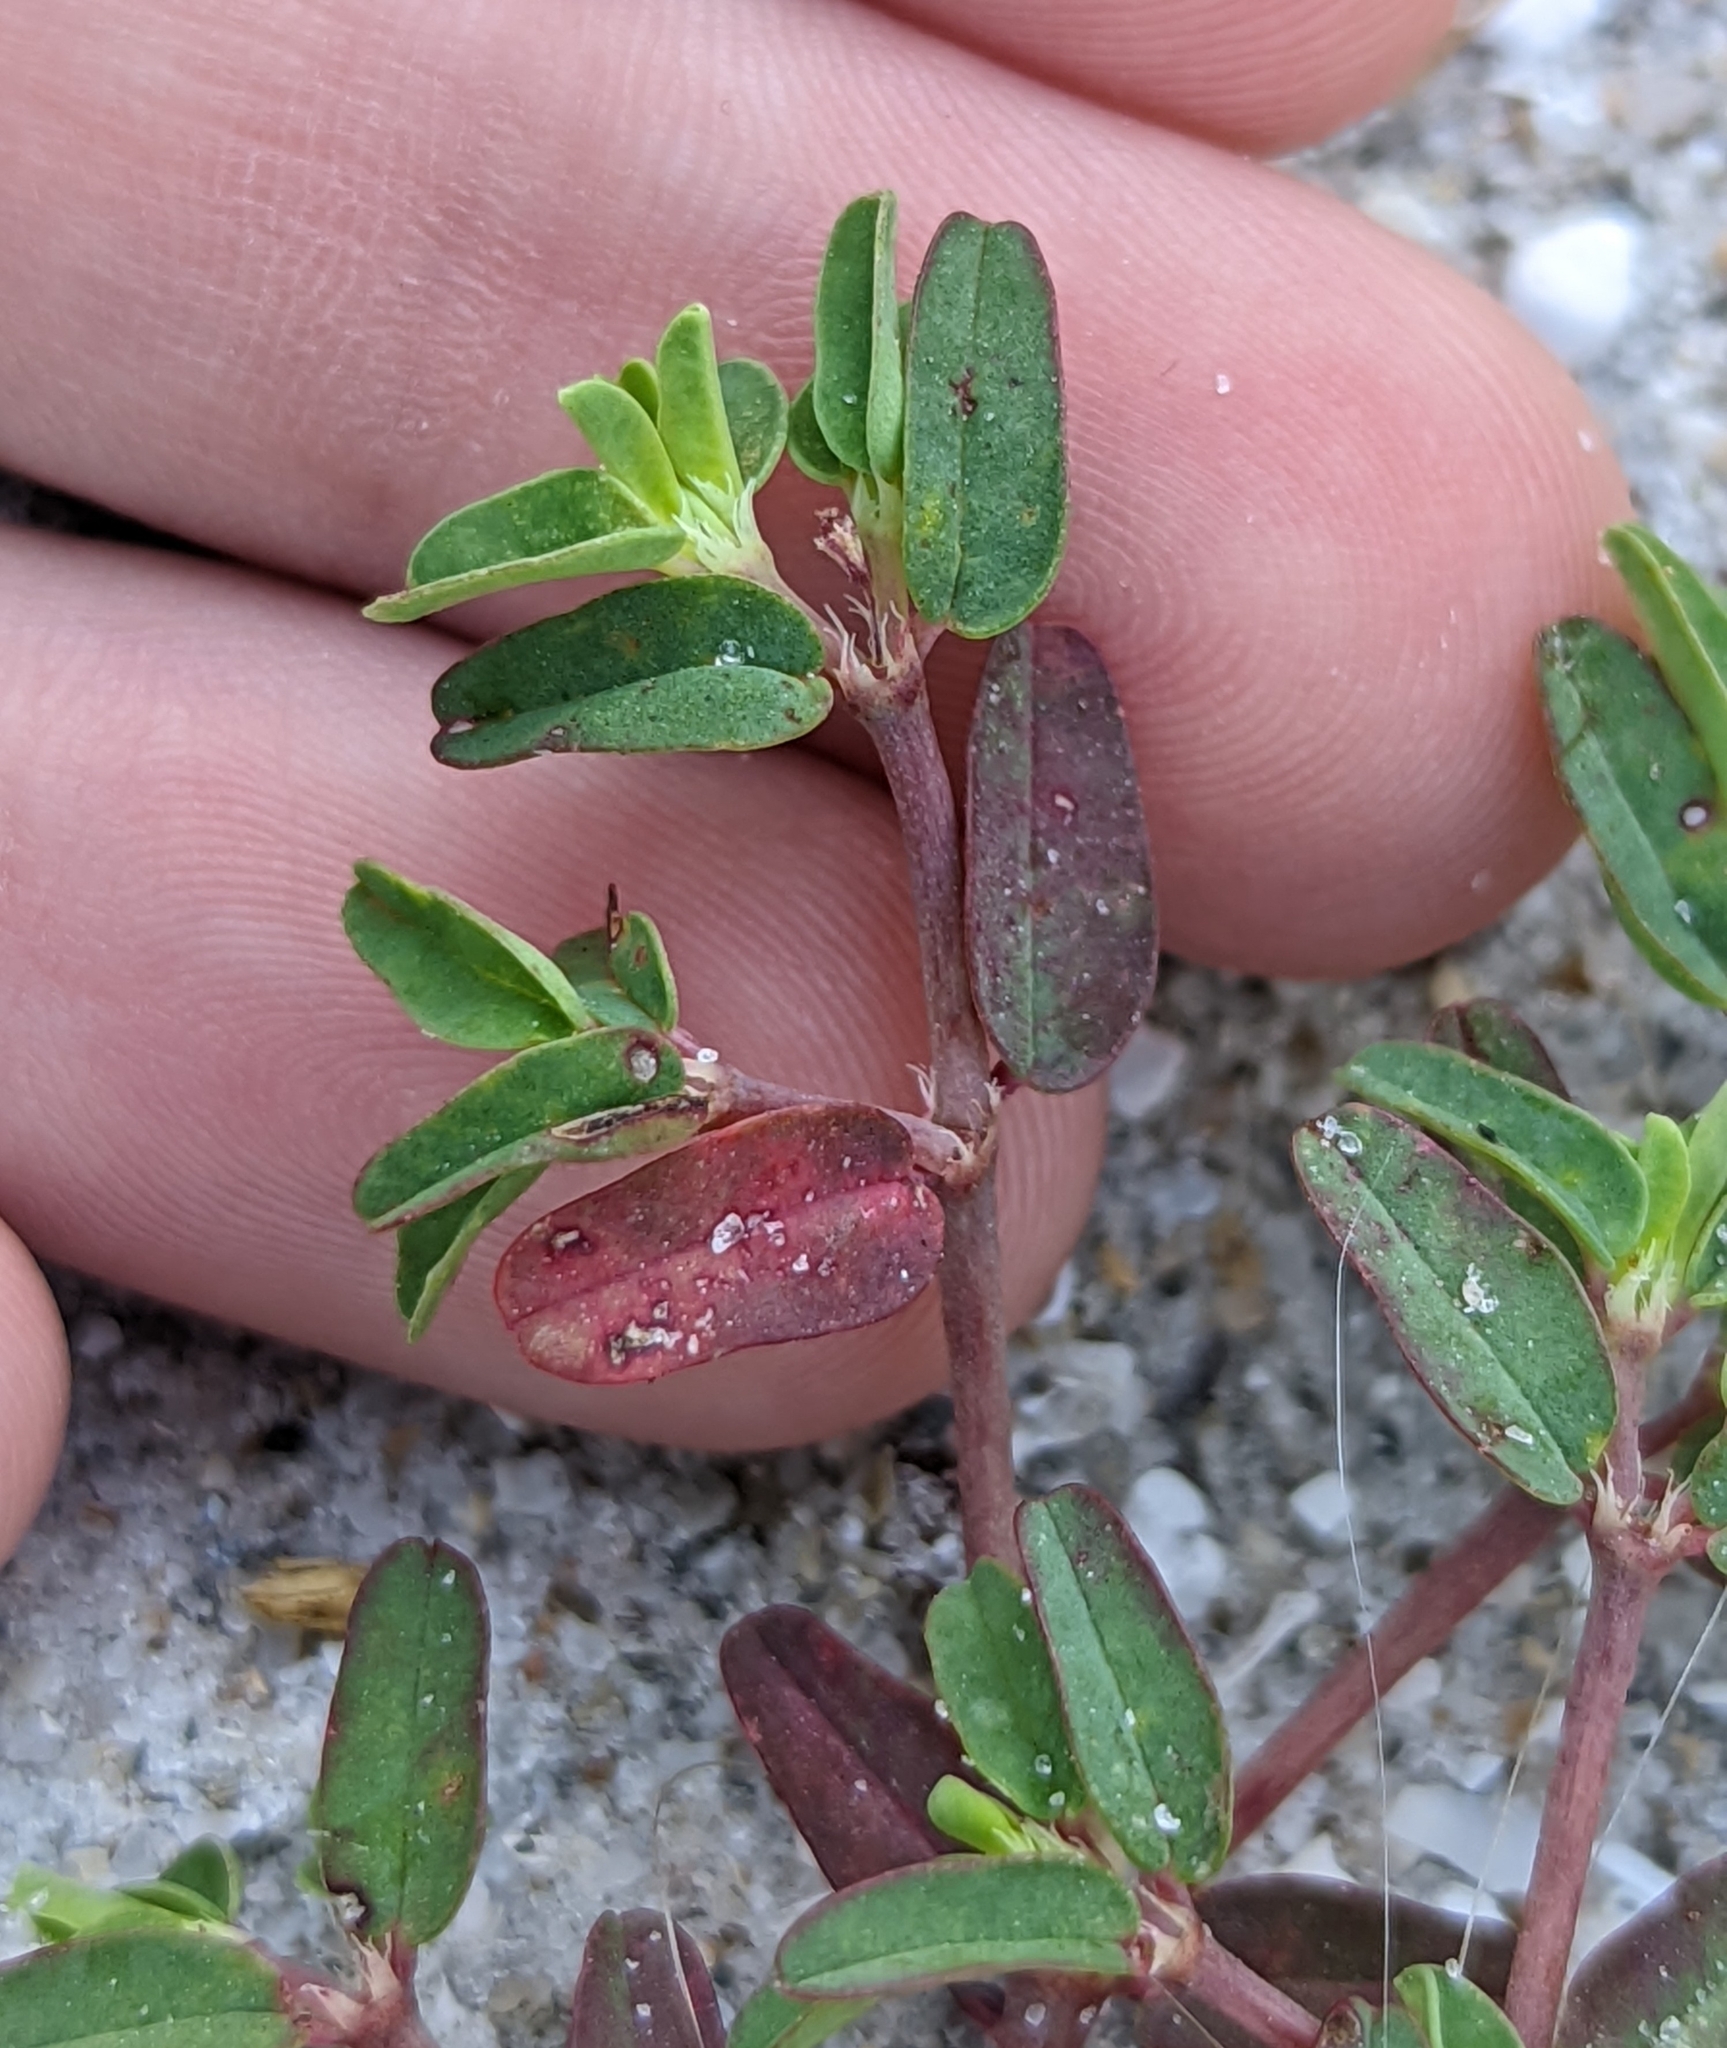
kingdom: Plantae
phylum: Tracheophyta
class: Magnoliopsida
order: Malpighiales
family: Euphorbiaceae
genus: Euphorbia
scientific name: Euphorbia bombensis
